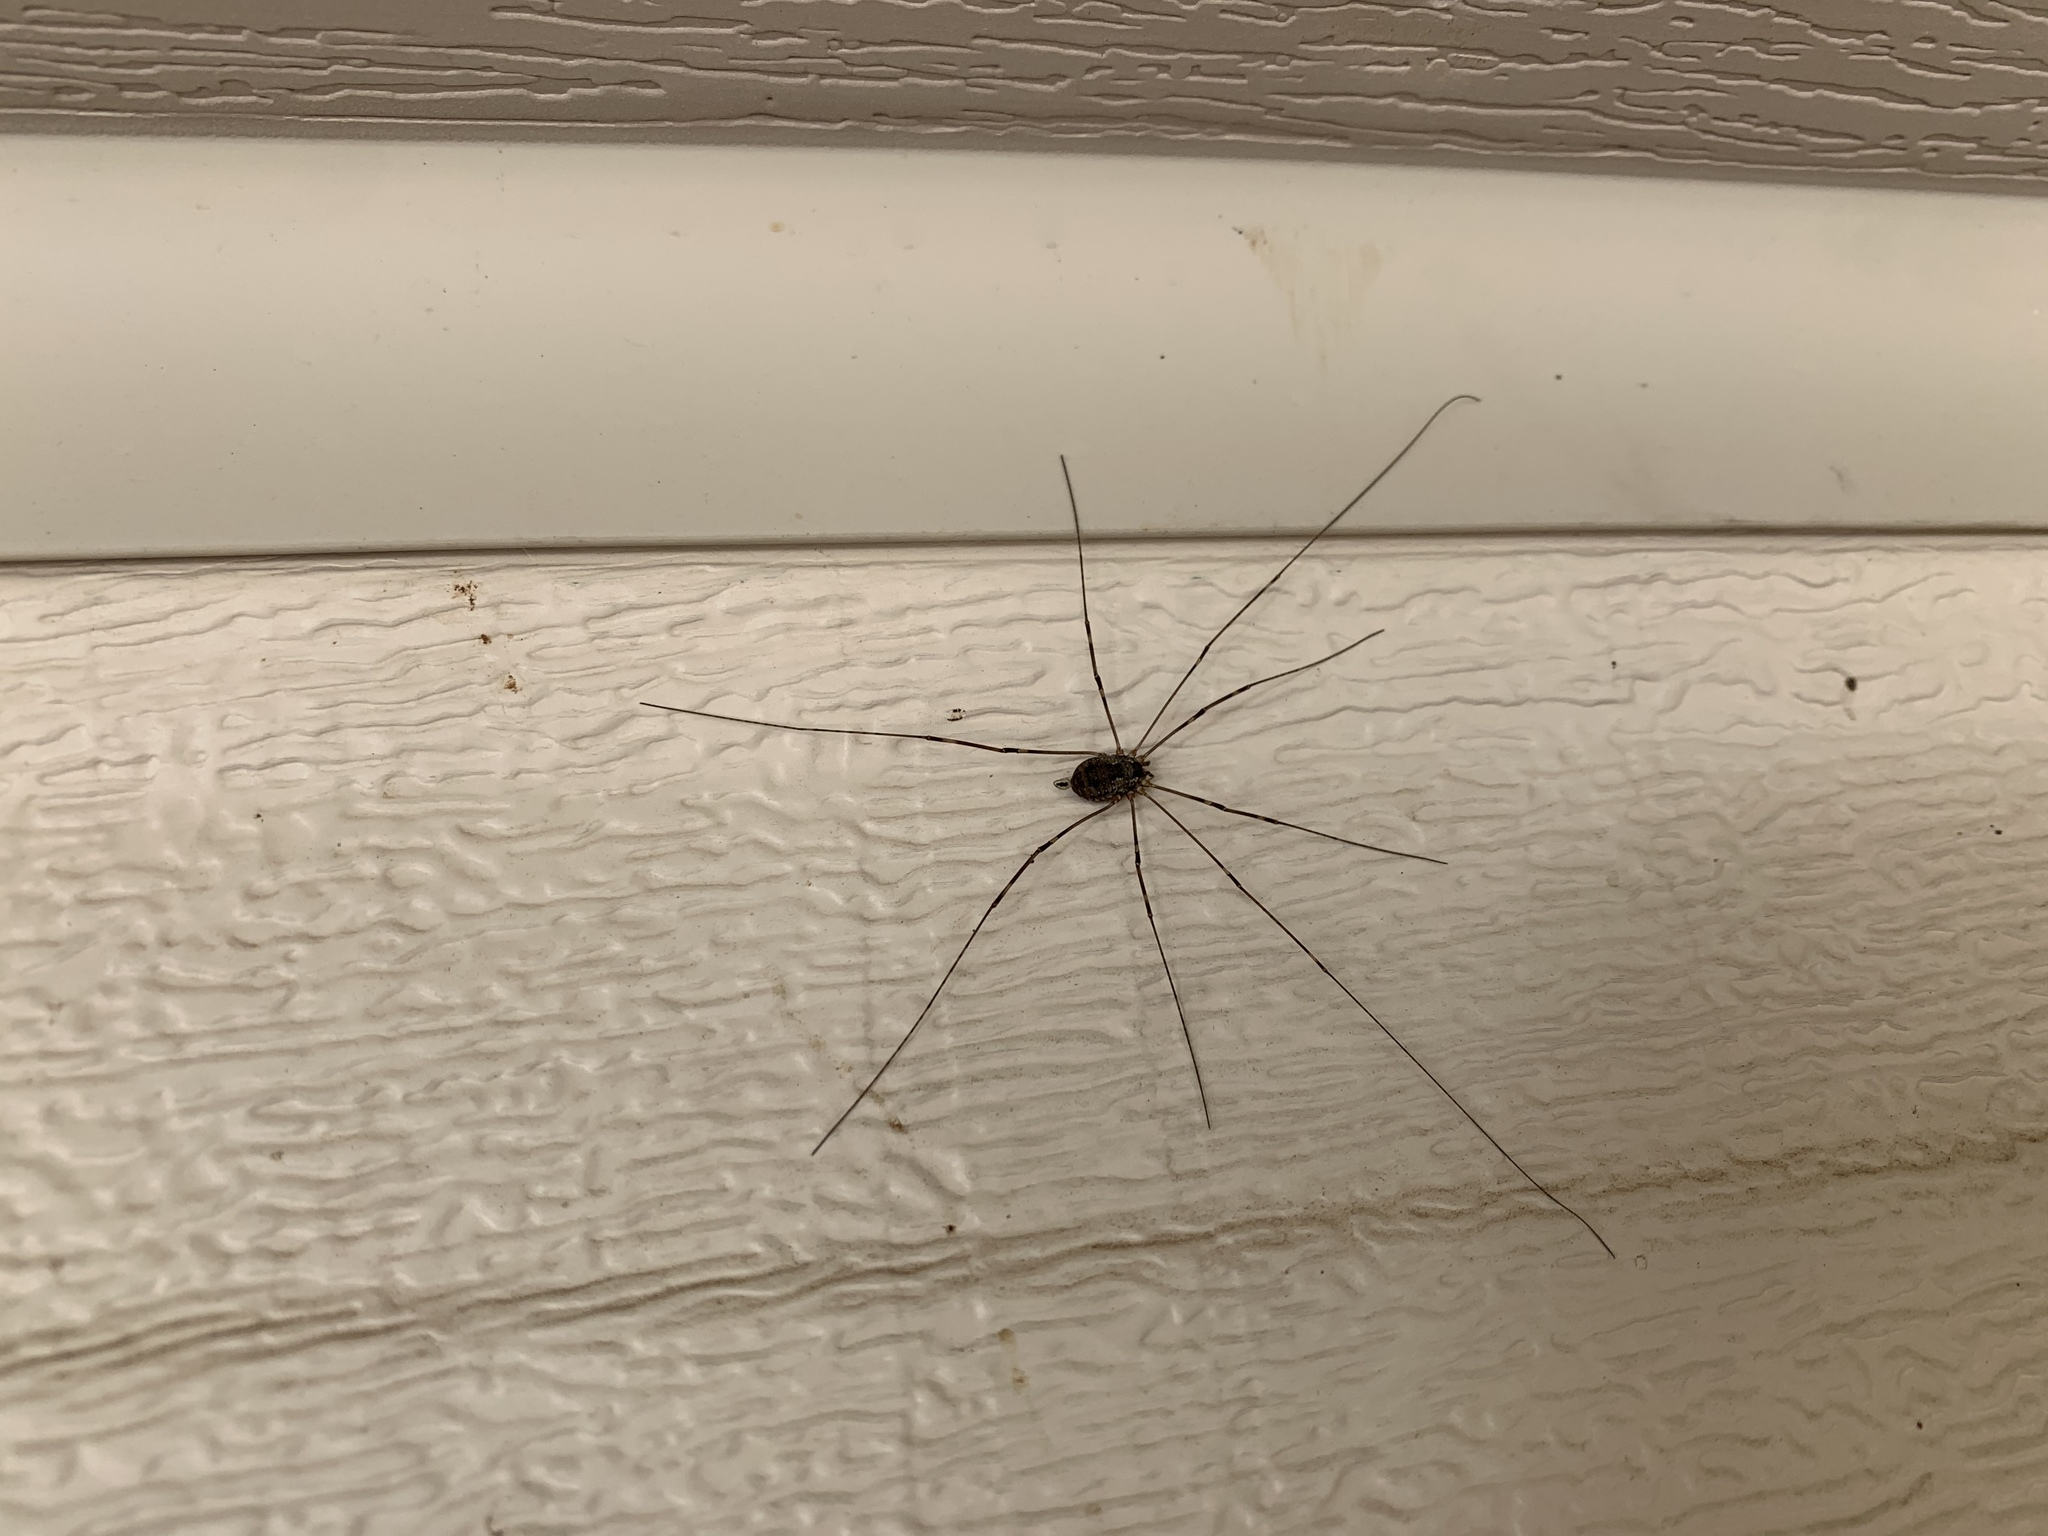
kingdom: Animalia
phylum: Arthropoda
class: Arachnida
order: Opiliones
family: Sclerosomatidae
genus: Leiobunum
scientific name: Leiobunum townsendi
